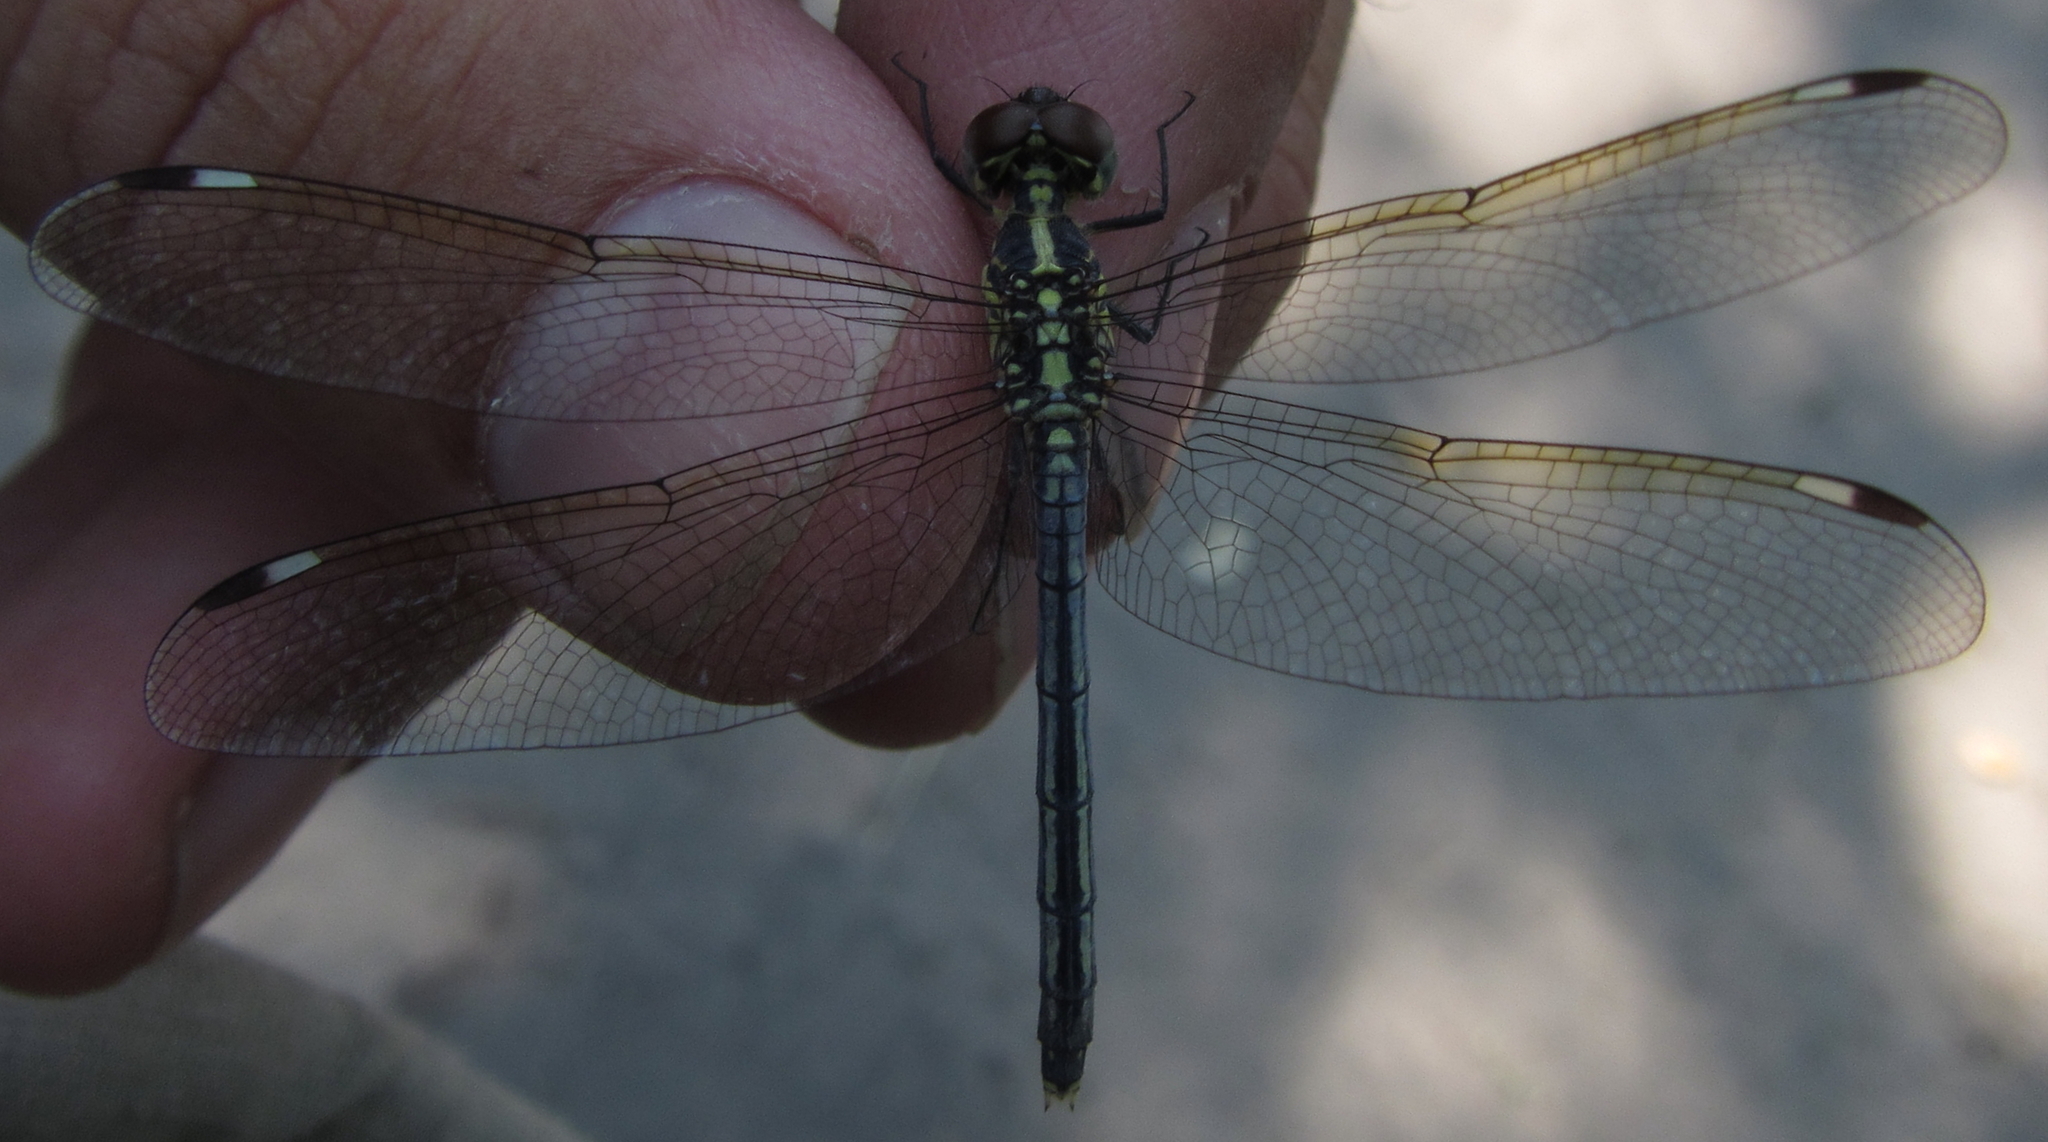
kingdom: Animalia
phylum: Arthropoda
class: Insecta
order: Odonata
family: Libellulidae
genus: Hemistigma
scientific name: Hemistigma albipunctum
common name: African pied-spot
